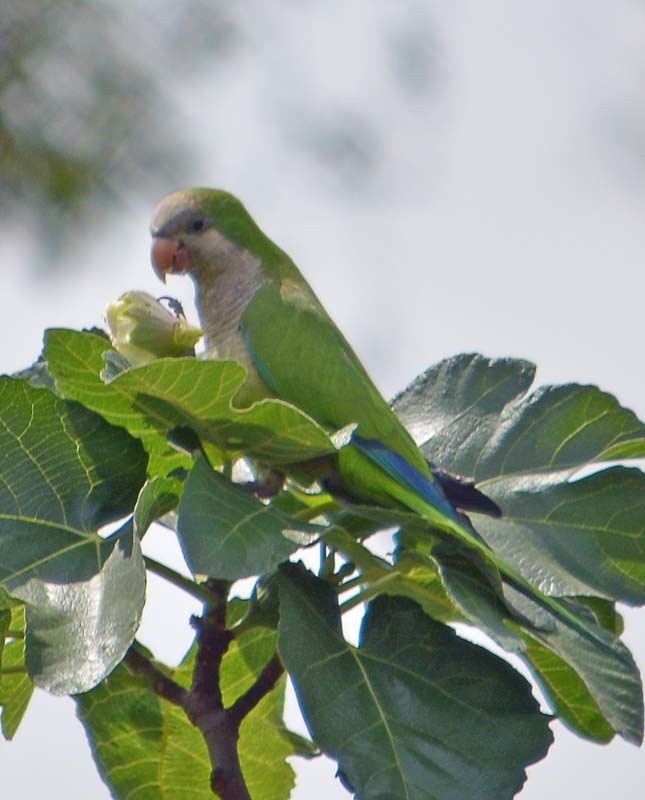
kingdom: Animalia
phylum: Chordata
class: Aves
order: Psittaciformes
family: Psittacidae
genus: Myiopsitta
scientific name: Myiopsitta monachus
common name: Monk parakeet
